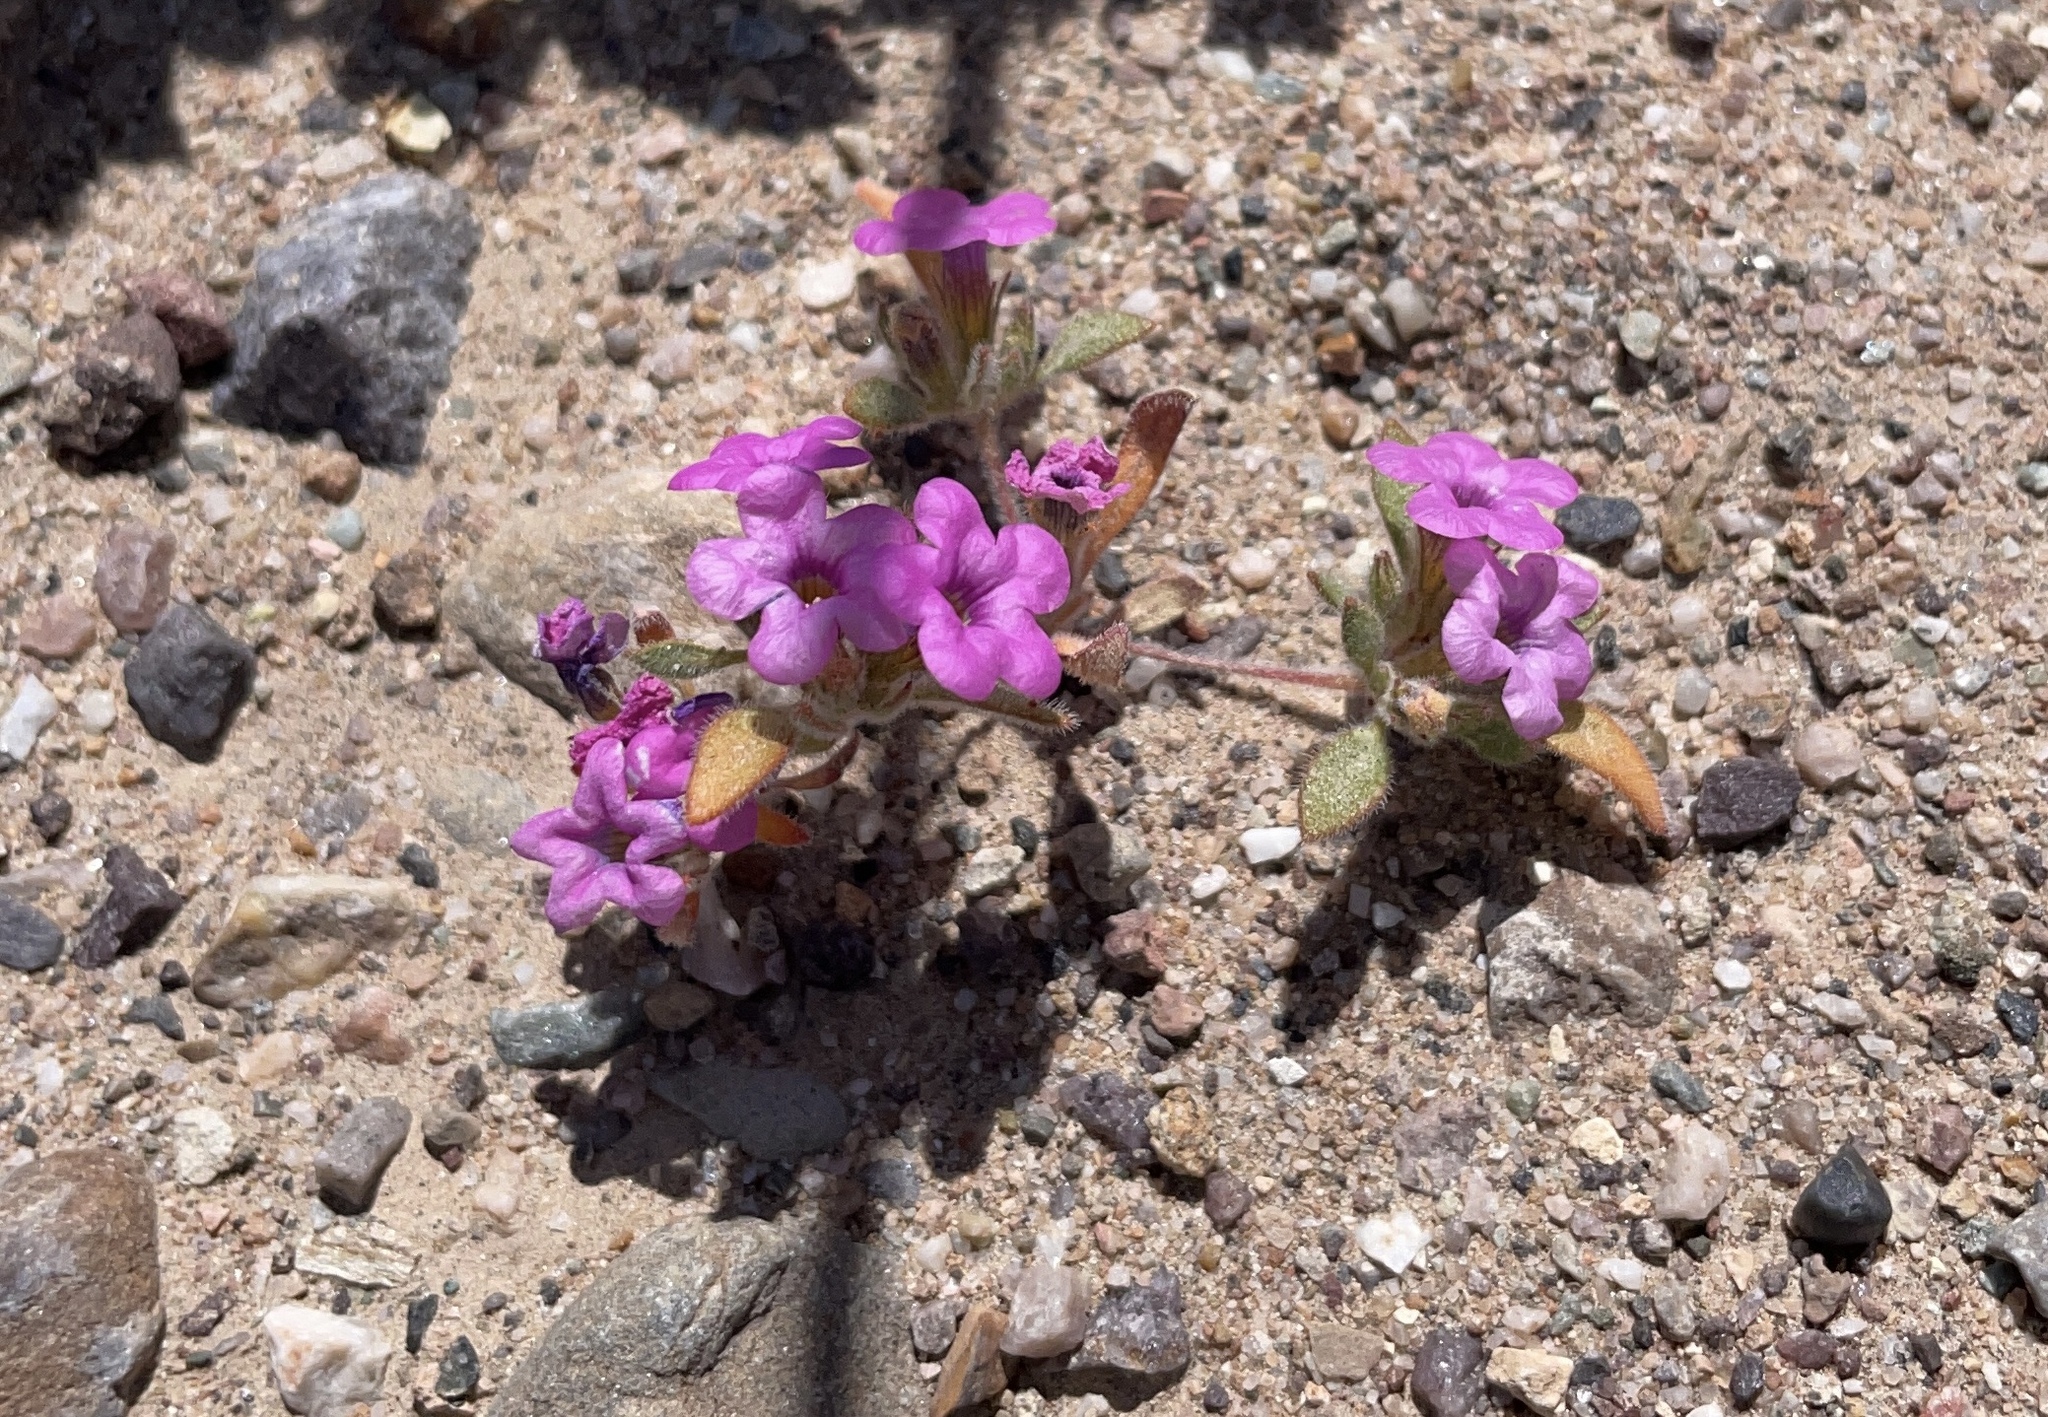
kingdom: Plantae
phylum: Tracheophyta
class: Magnoliopsida
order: Boraginales
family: Namaceae
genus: Nama
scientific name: Nama demissa
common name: Leafy nama
